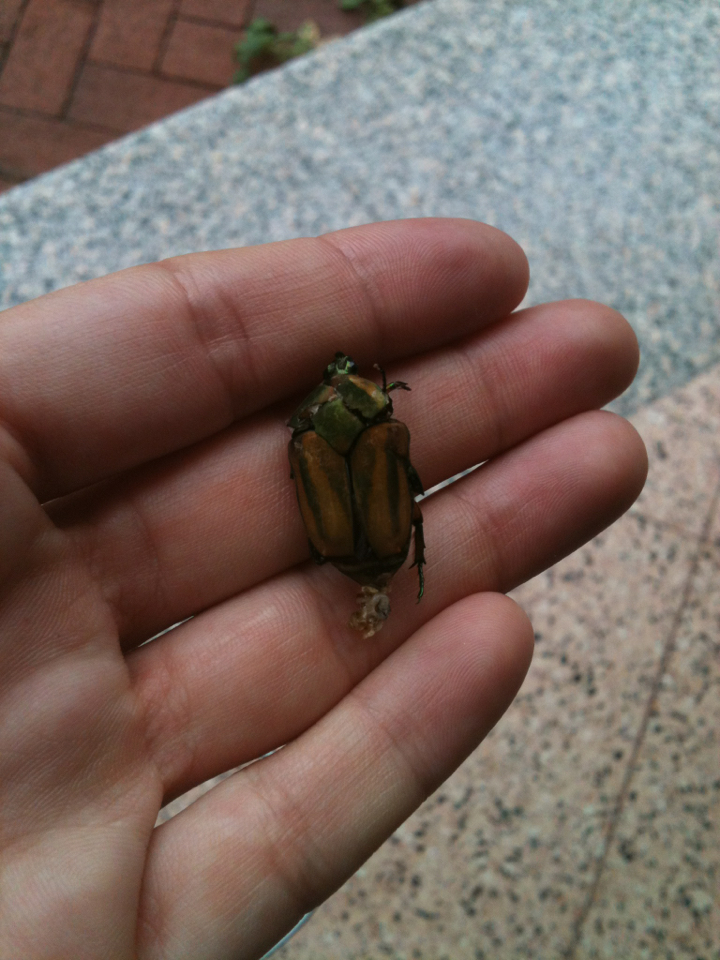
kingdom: Animalia
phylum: Arthropoda
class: Insecta
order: Coleoptera
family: Scarabaeidae
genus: Cotinis
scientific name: Cotinis nitida
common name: Common green june beetle
